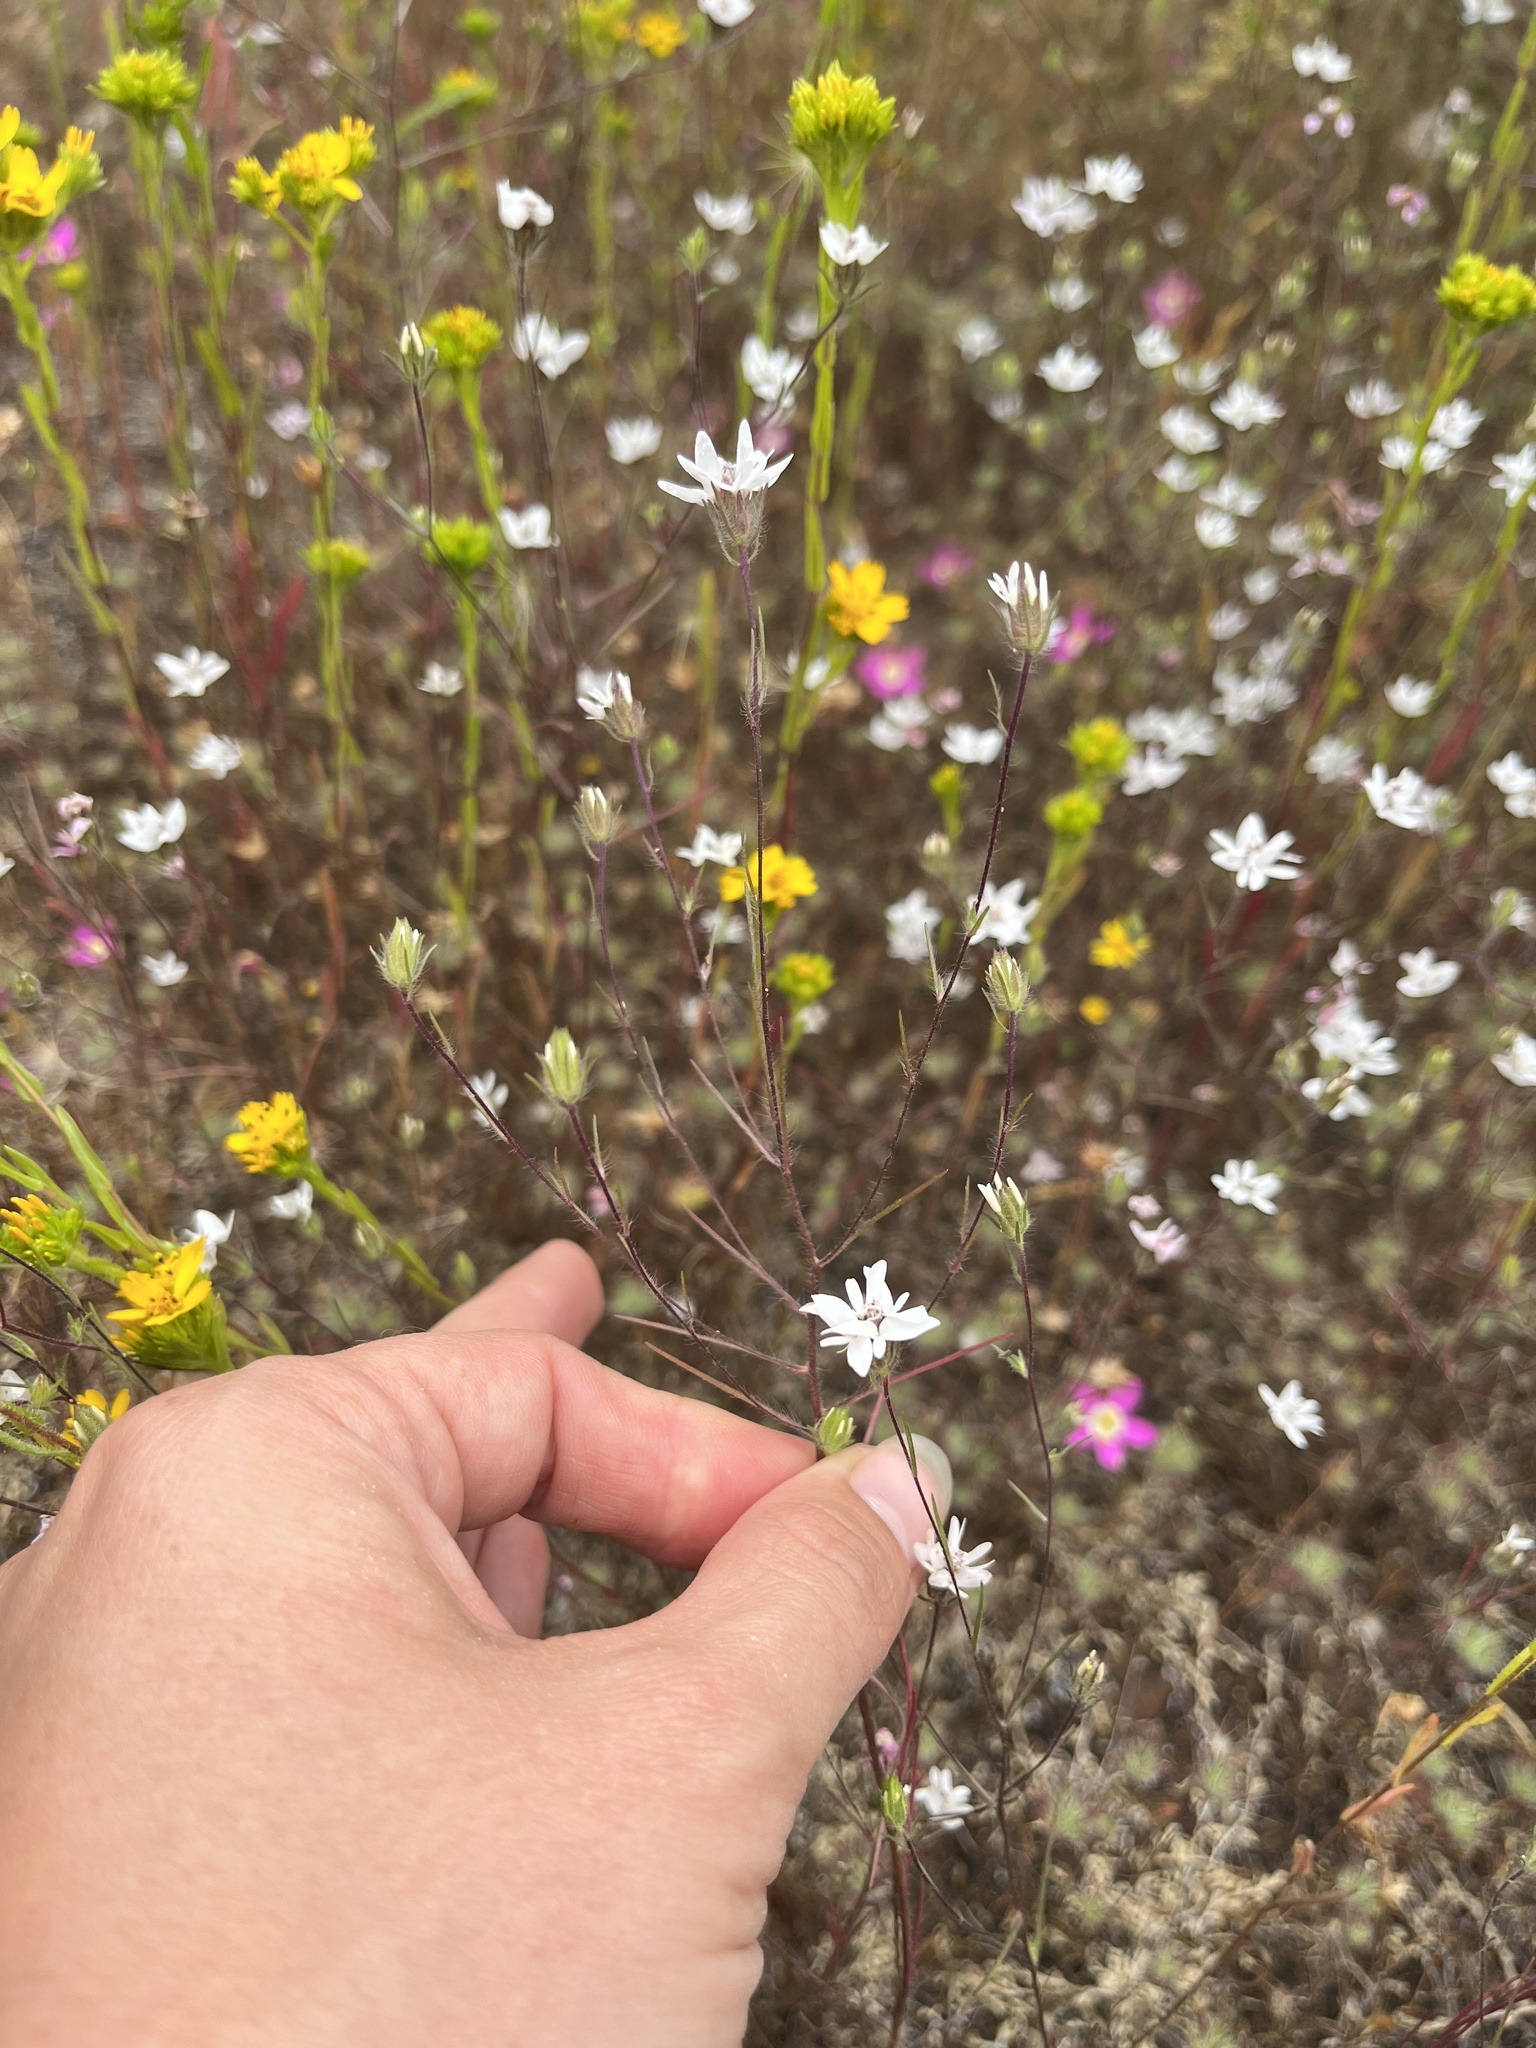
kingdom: Plantae
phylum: Tracheophyta
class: Magnoliopsida
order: Asterales
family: Asteraceae
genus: Osmadenia
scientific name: Osmadenia tenella
